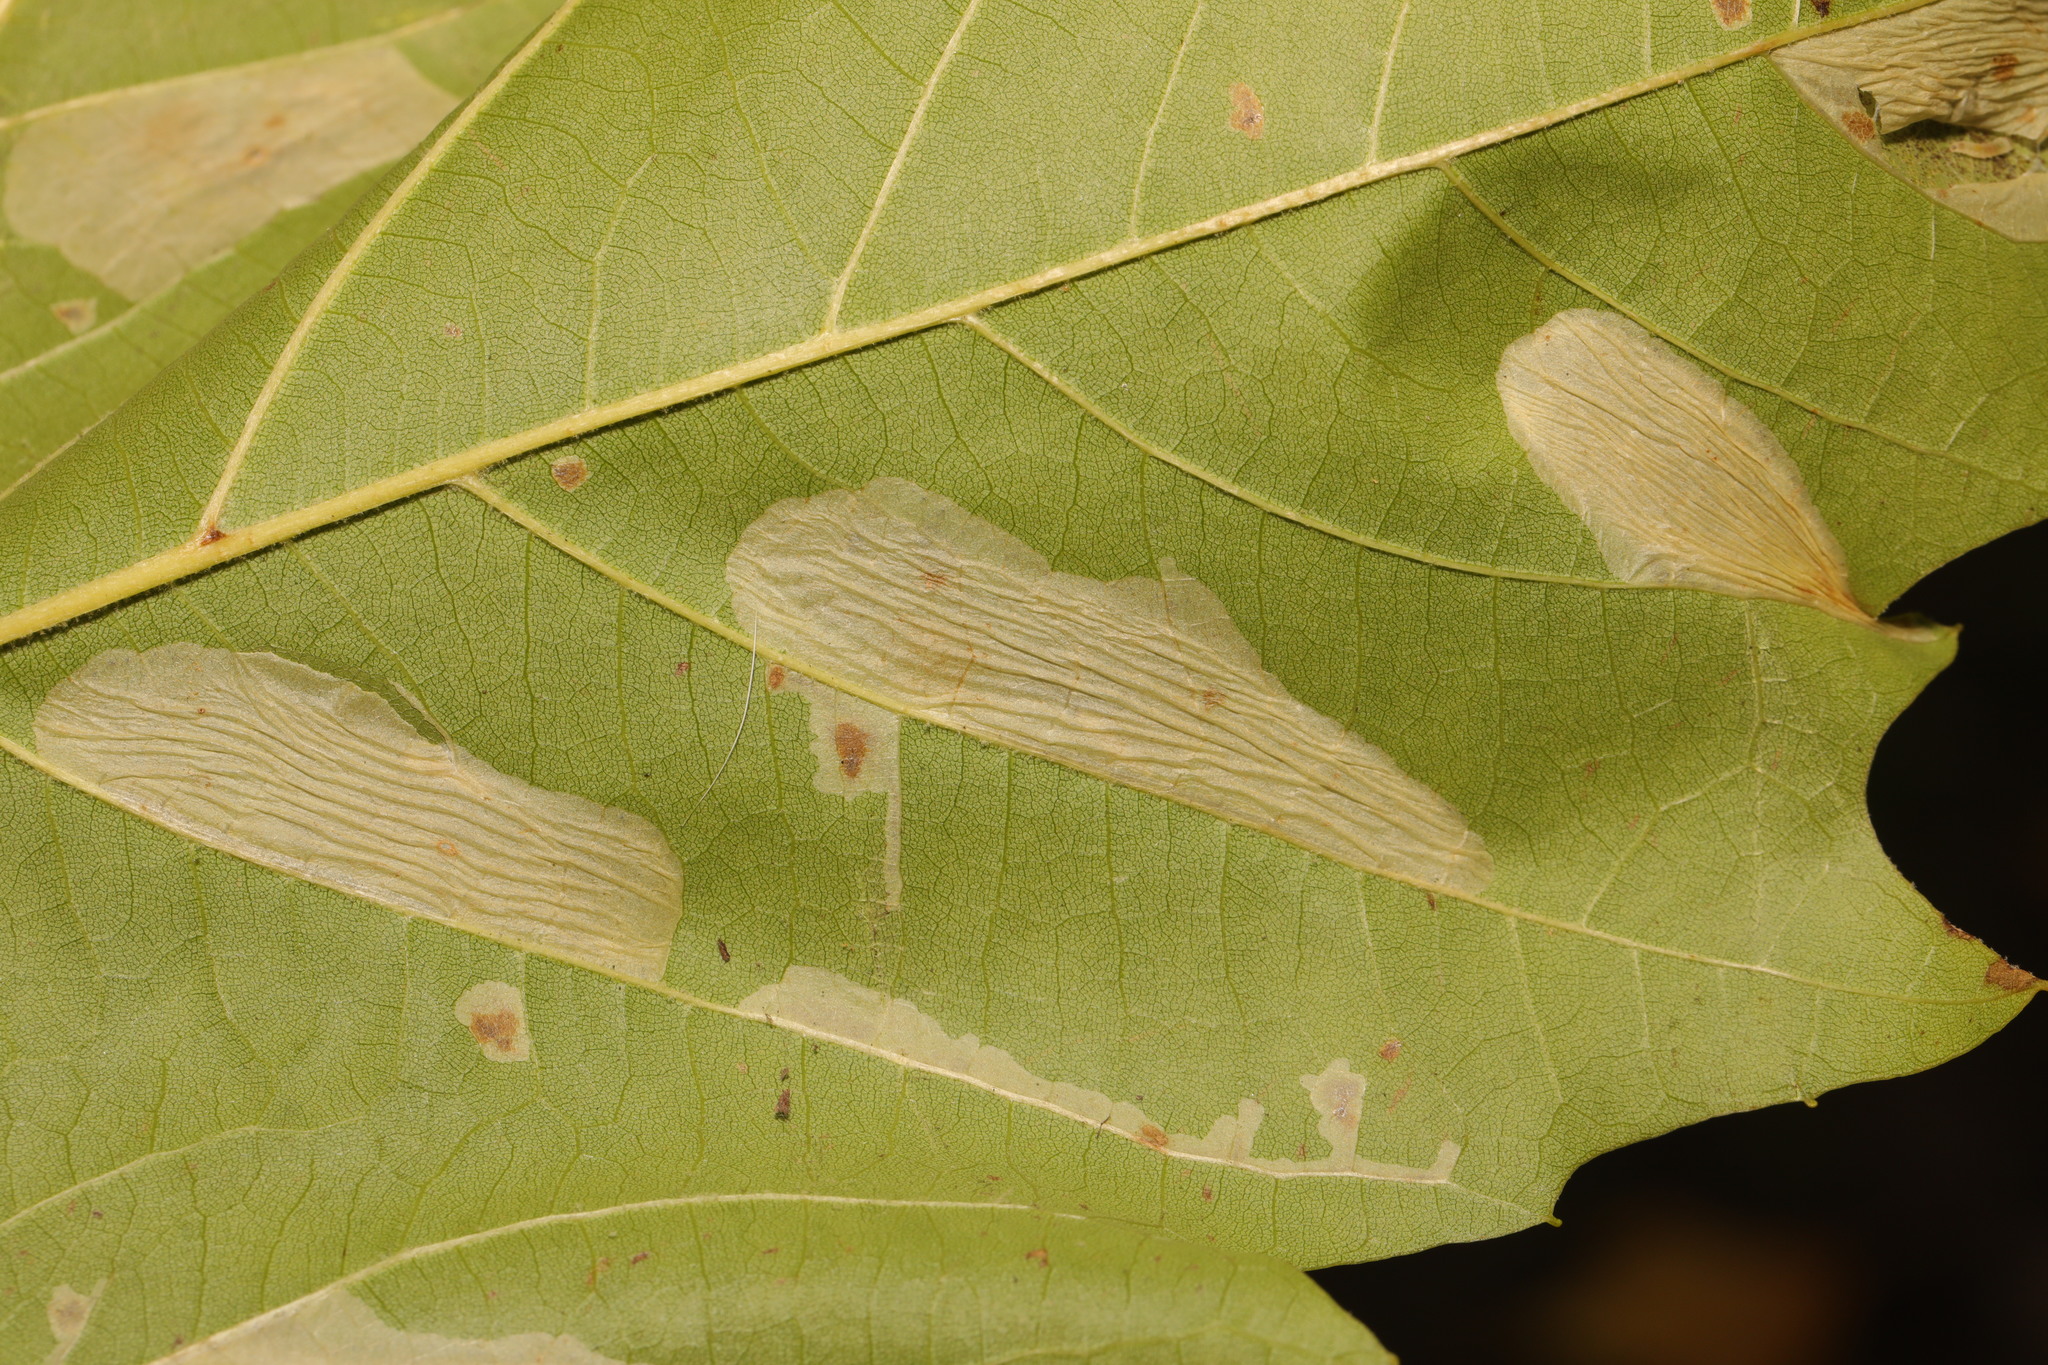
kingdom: Animalia
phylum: Arthropoda
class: Insecta
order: Lepidoptera
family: Gracillariidae
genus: Phyllonorycter
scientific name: Phyllonorycter platani
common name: London midget
